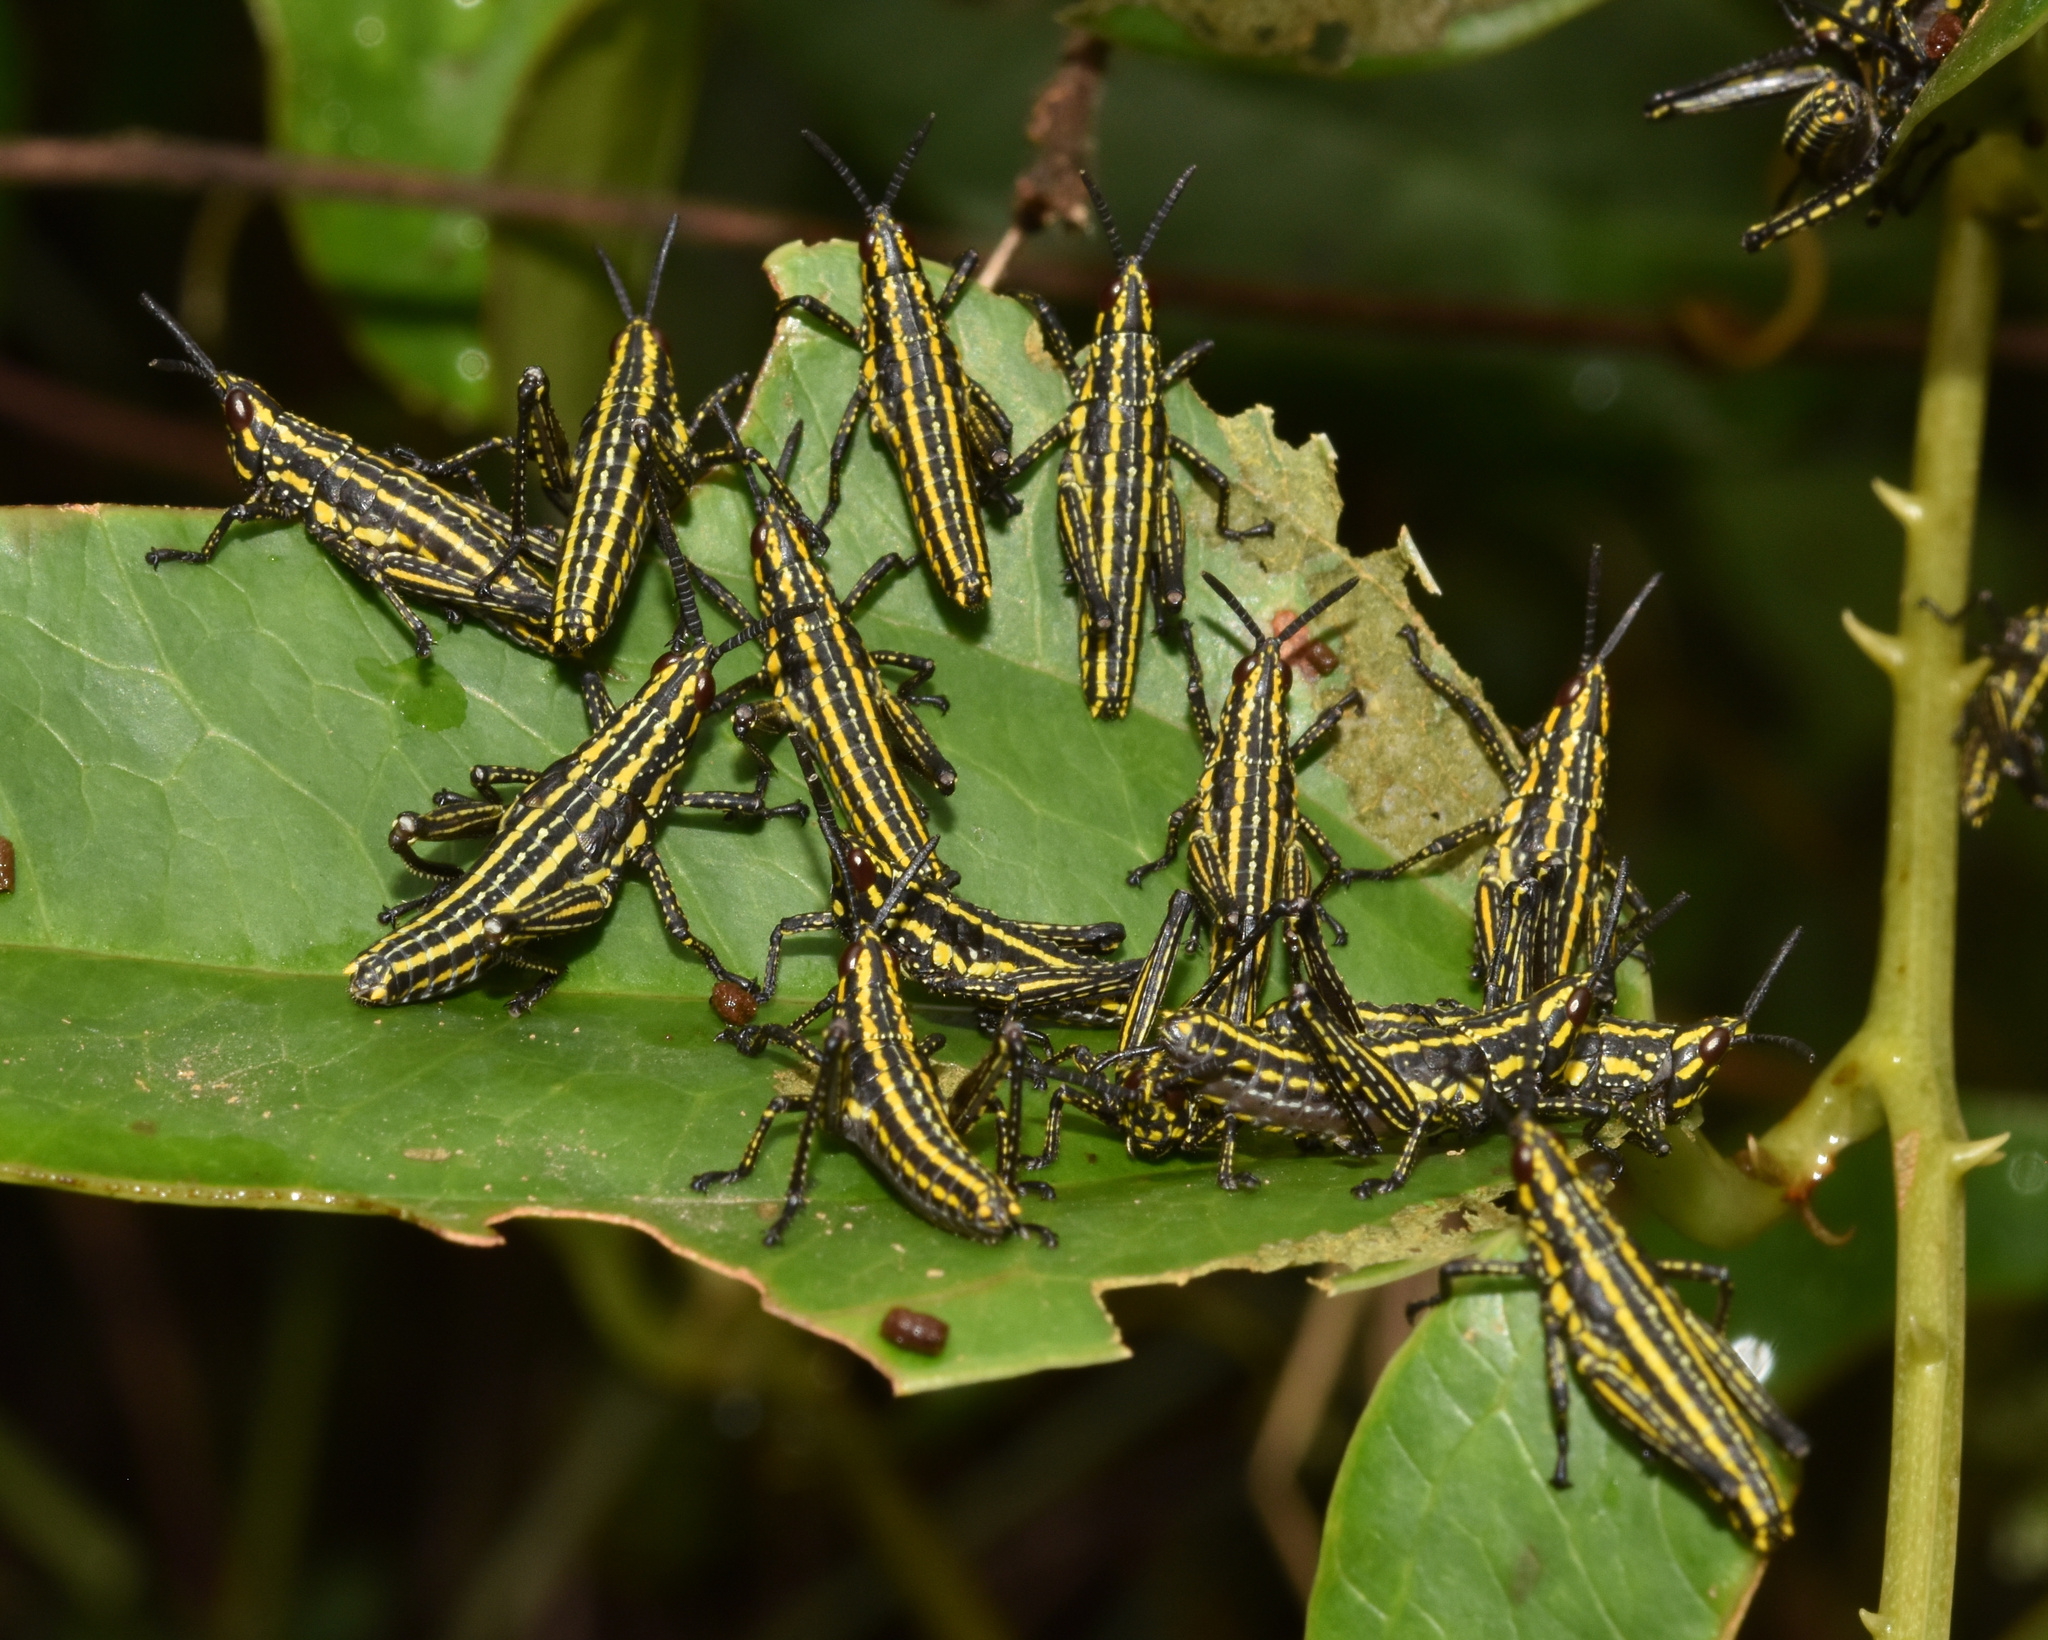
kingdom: Animalia
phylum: Arthropoda
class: Insecta
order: Orthoptera
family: Pyrgomorphidae
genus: Phymateus
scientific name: Phymateus viridipes
